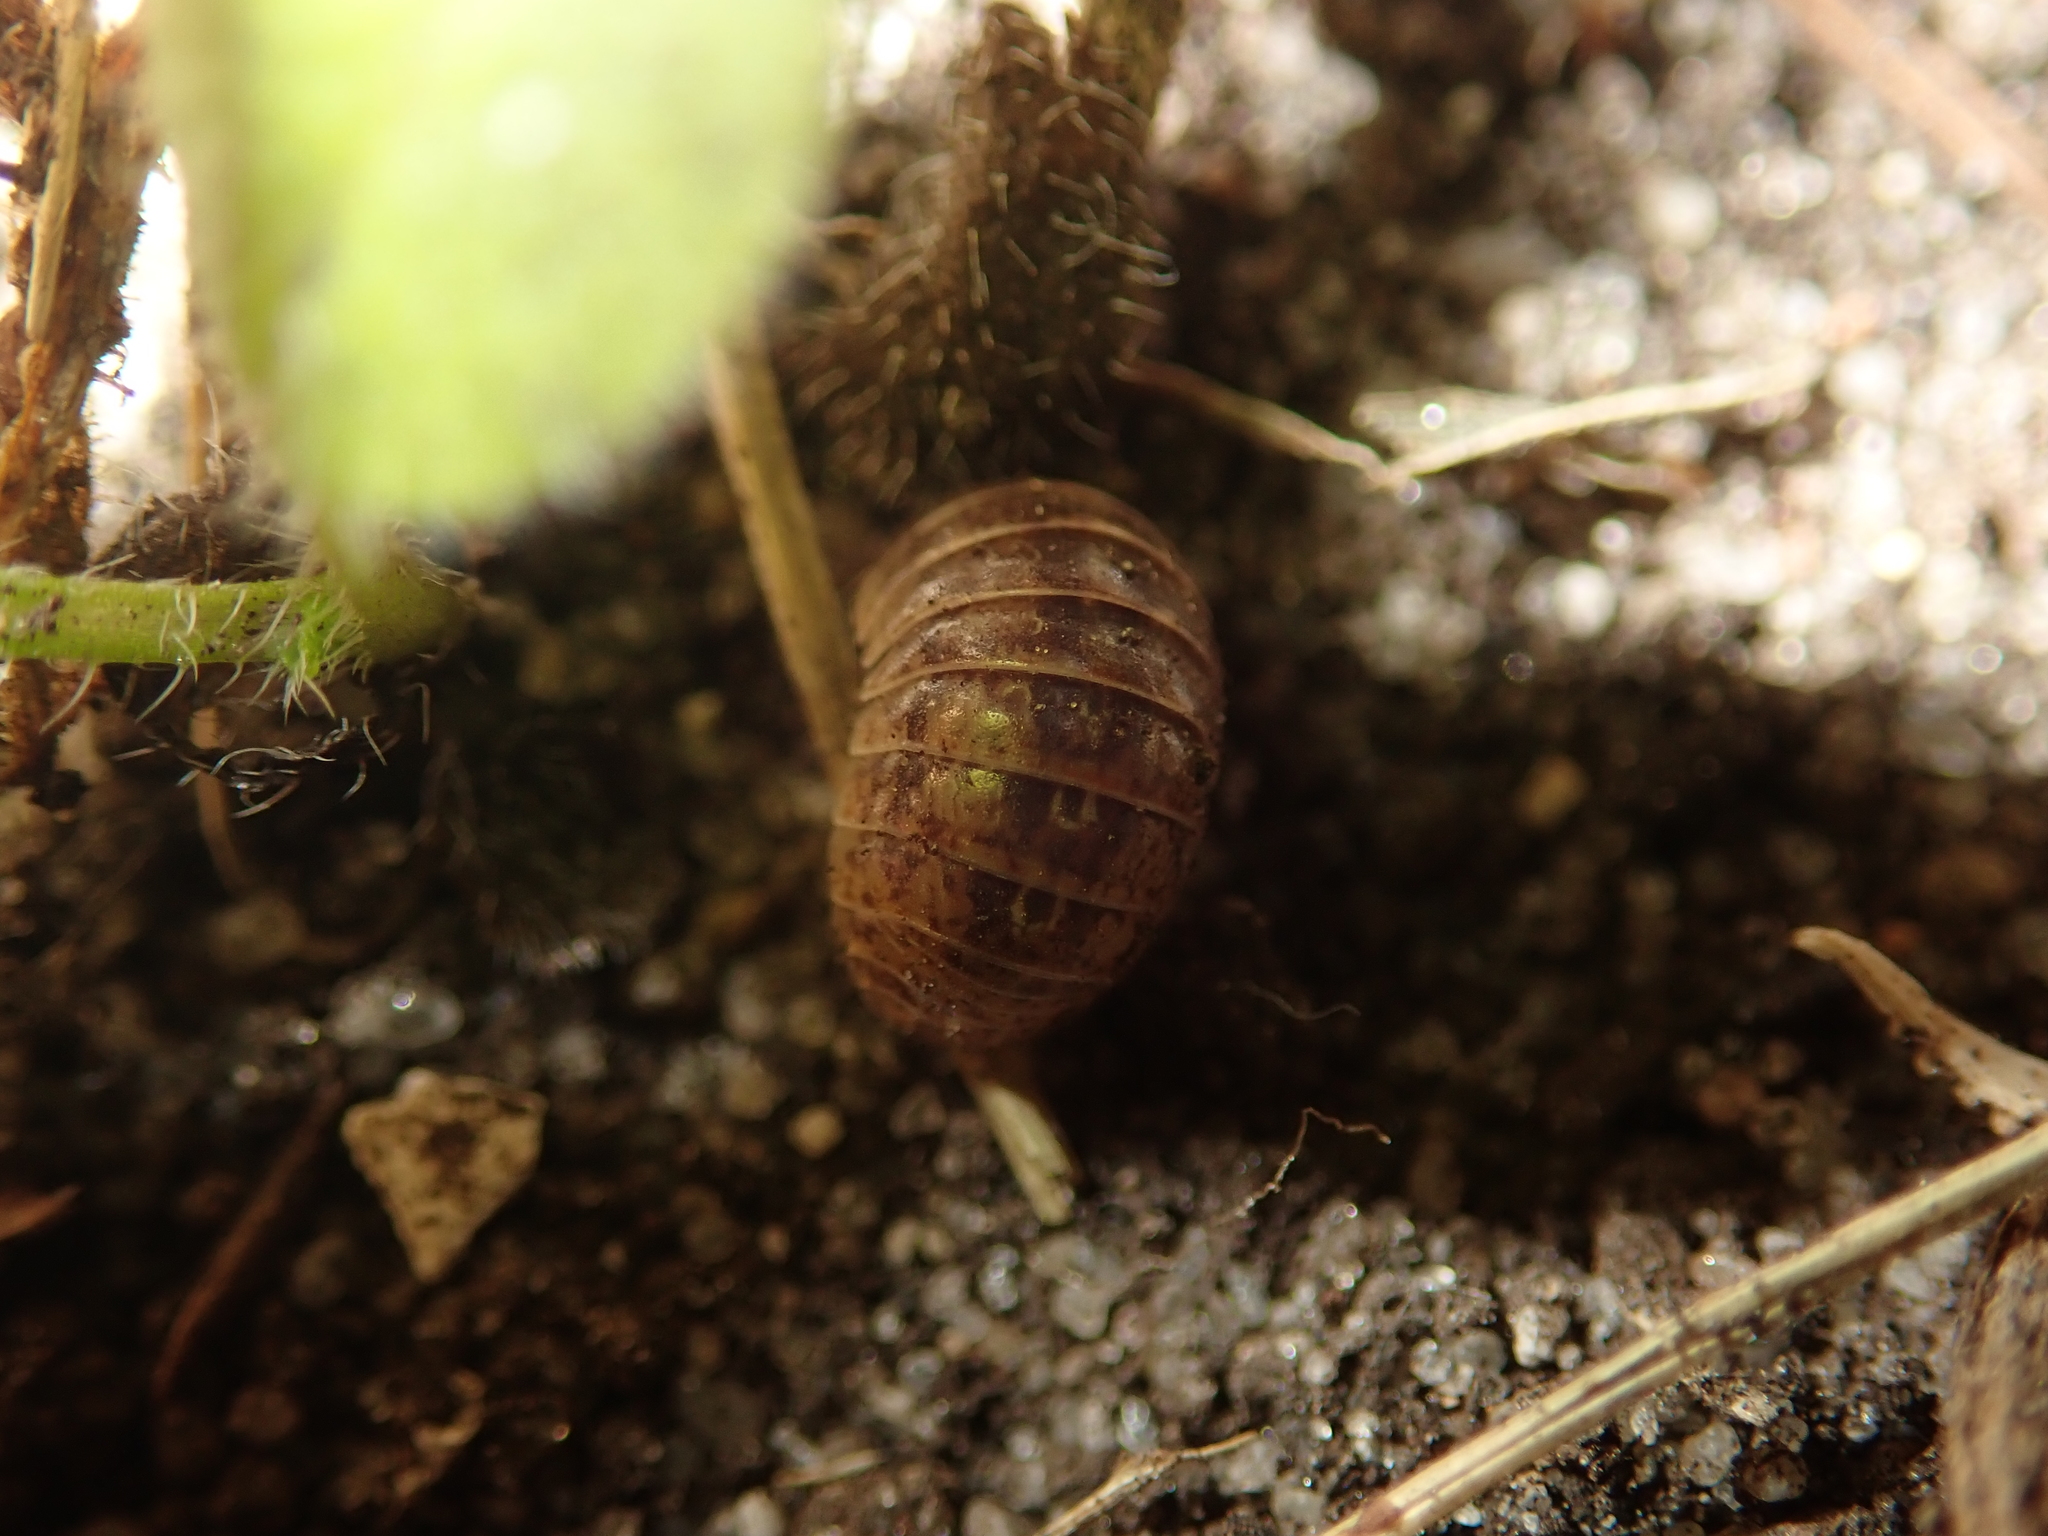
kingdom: Animalia
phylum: Arthropoda
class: Malacostraca
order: Isopoda
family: Armadillidiidae
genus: Armadillidium
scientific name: Armadillidium vulgare
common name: Common pill woodlouse
